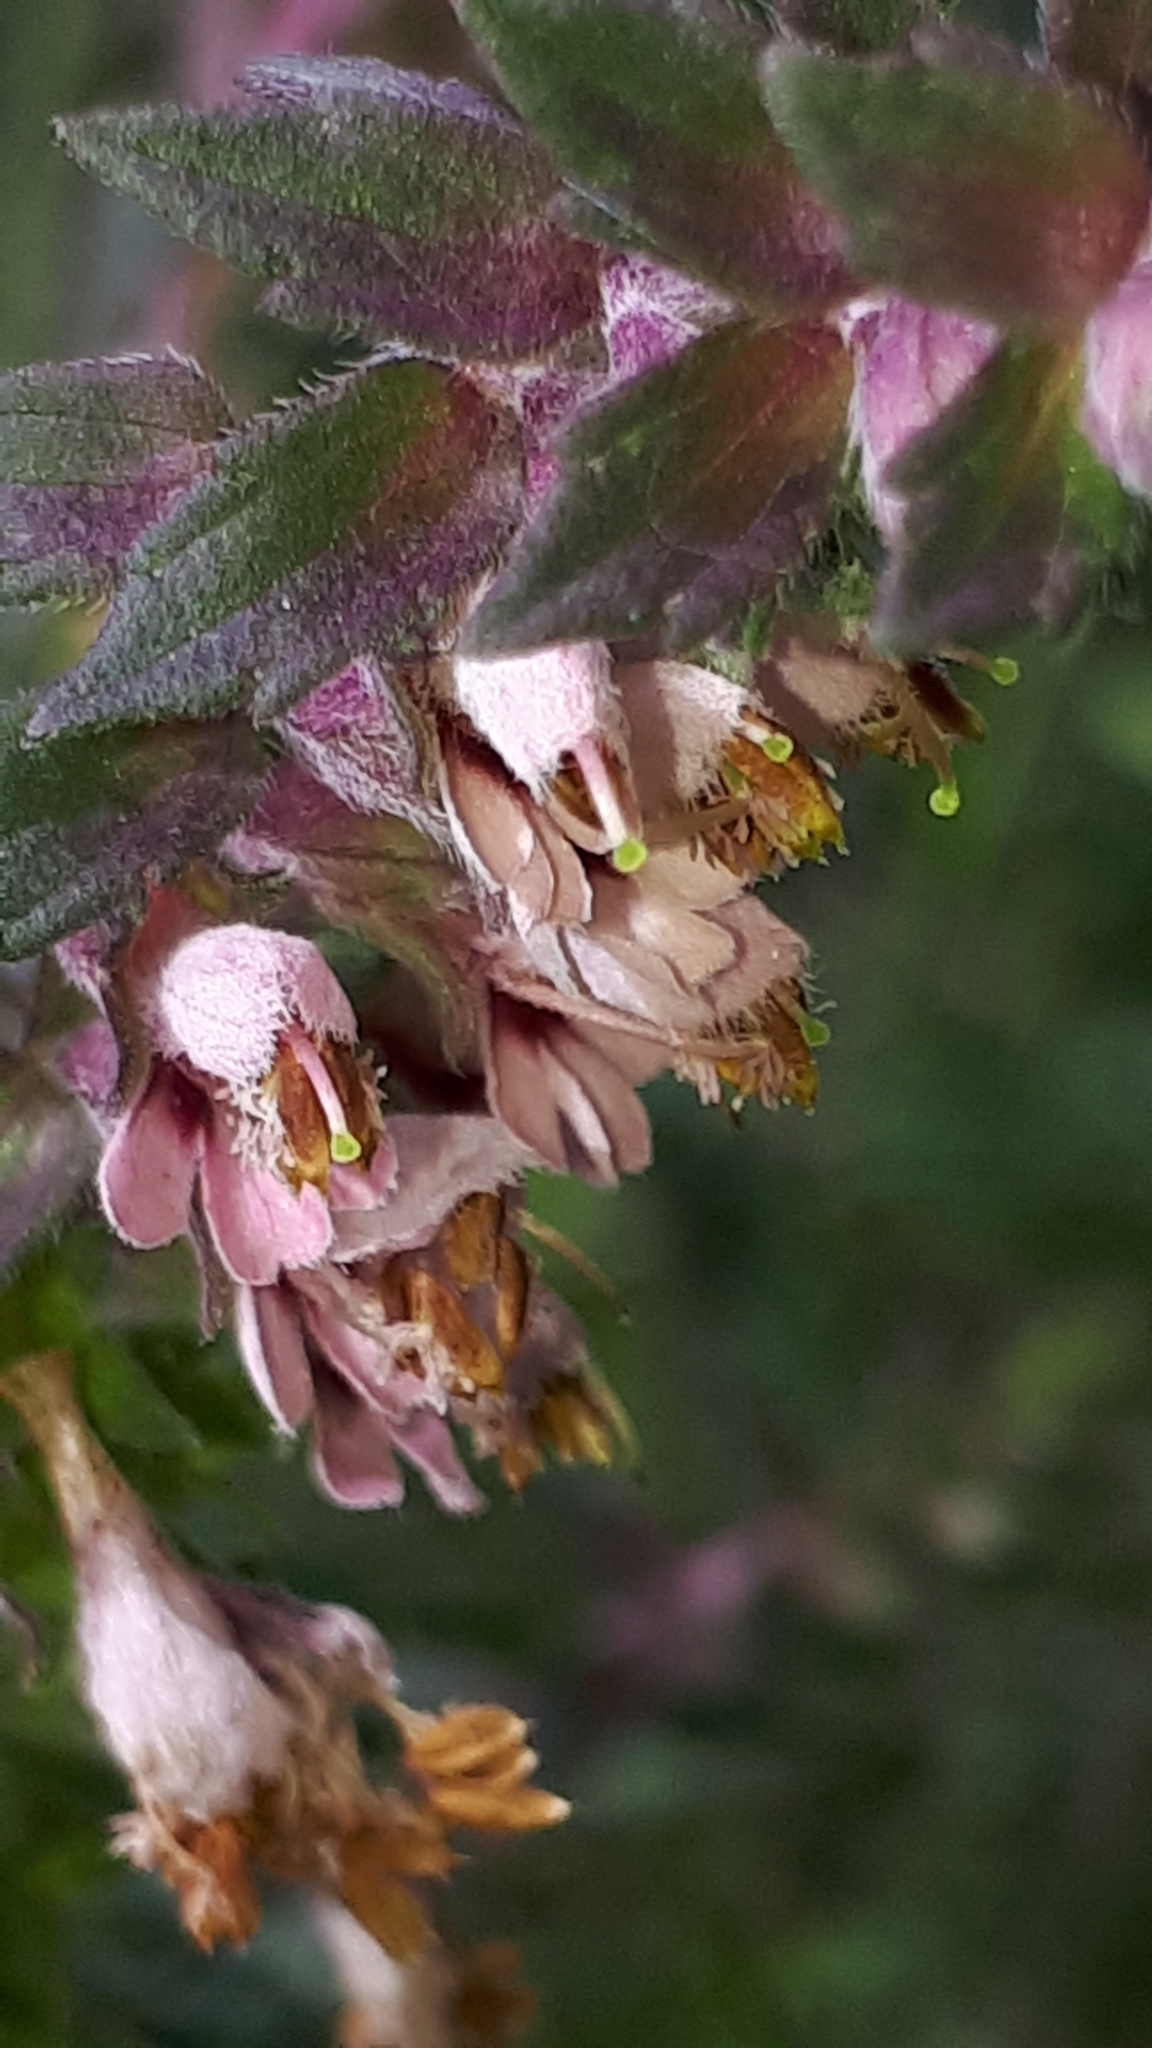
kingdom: Plantae
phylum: Tracheophyta
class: Magnoliopsida
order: Lamiales
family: Orobanchaceae
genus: Odontites
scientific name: Odontites vulgaris
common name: Broomrape
